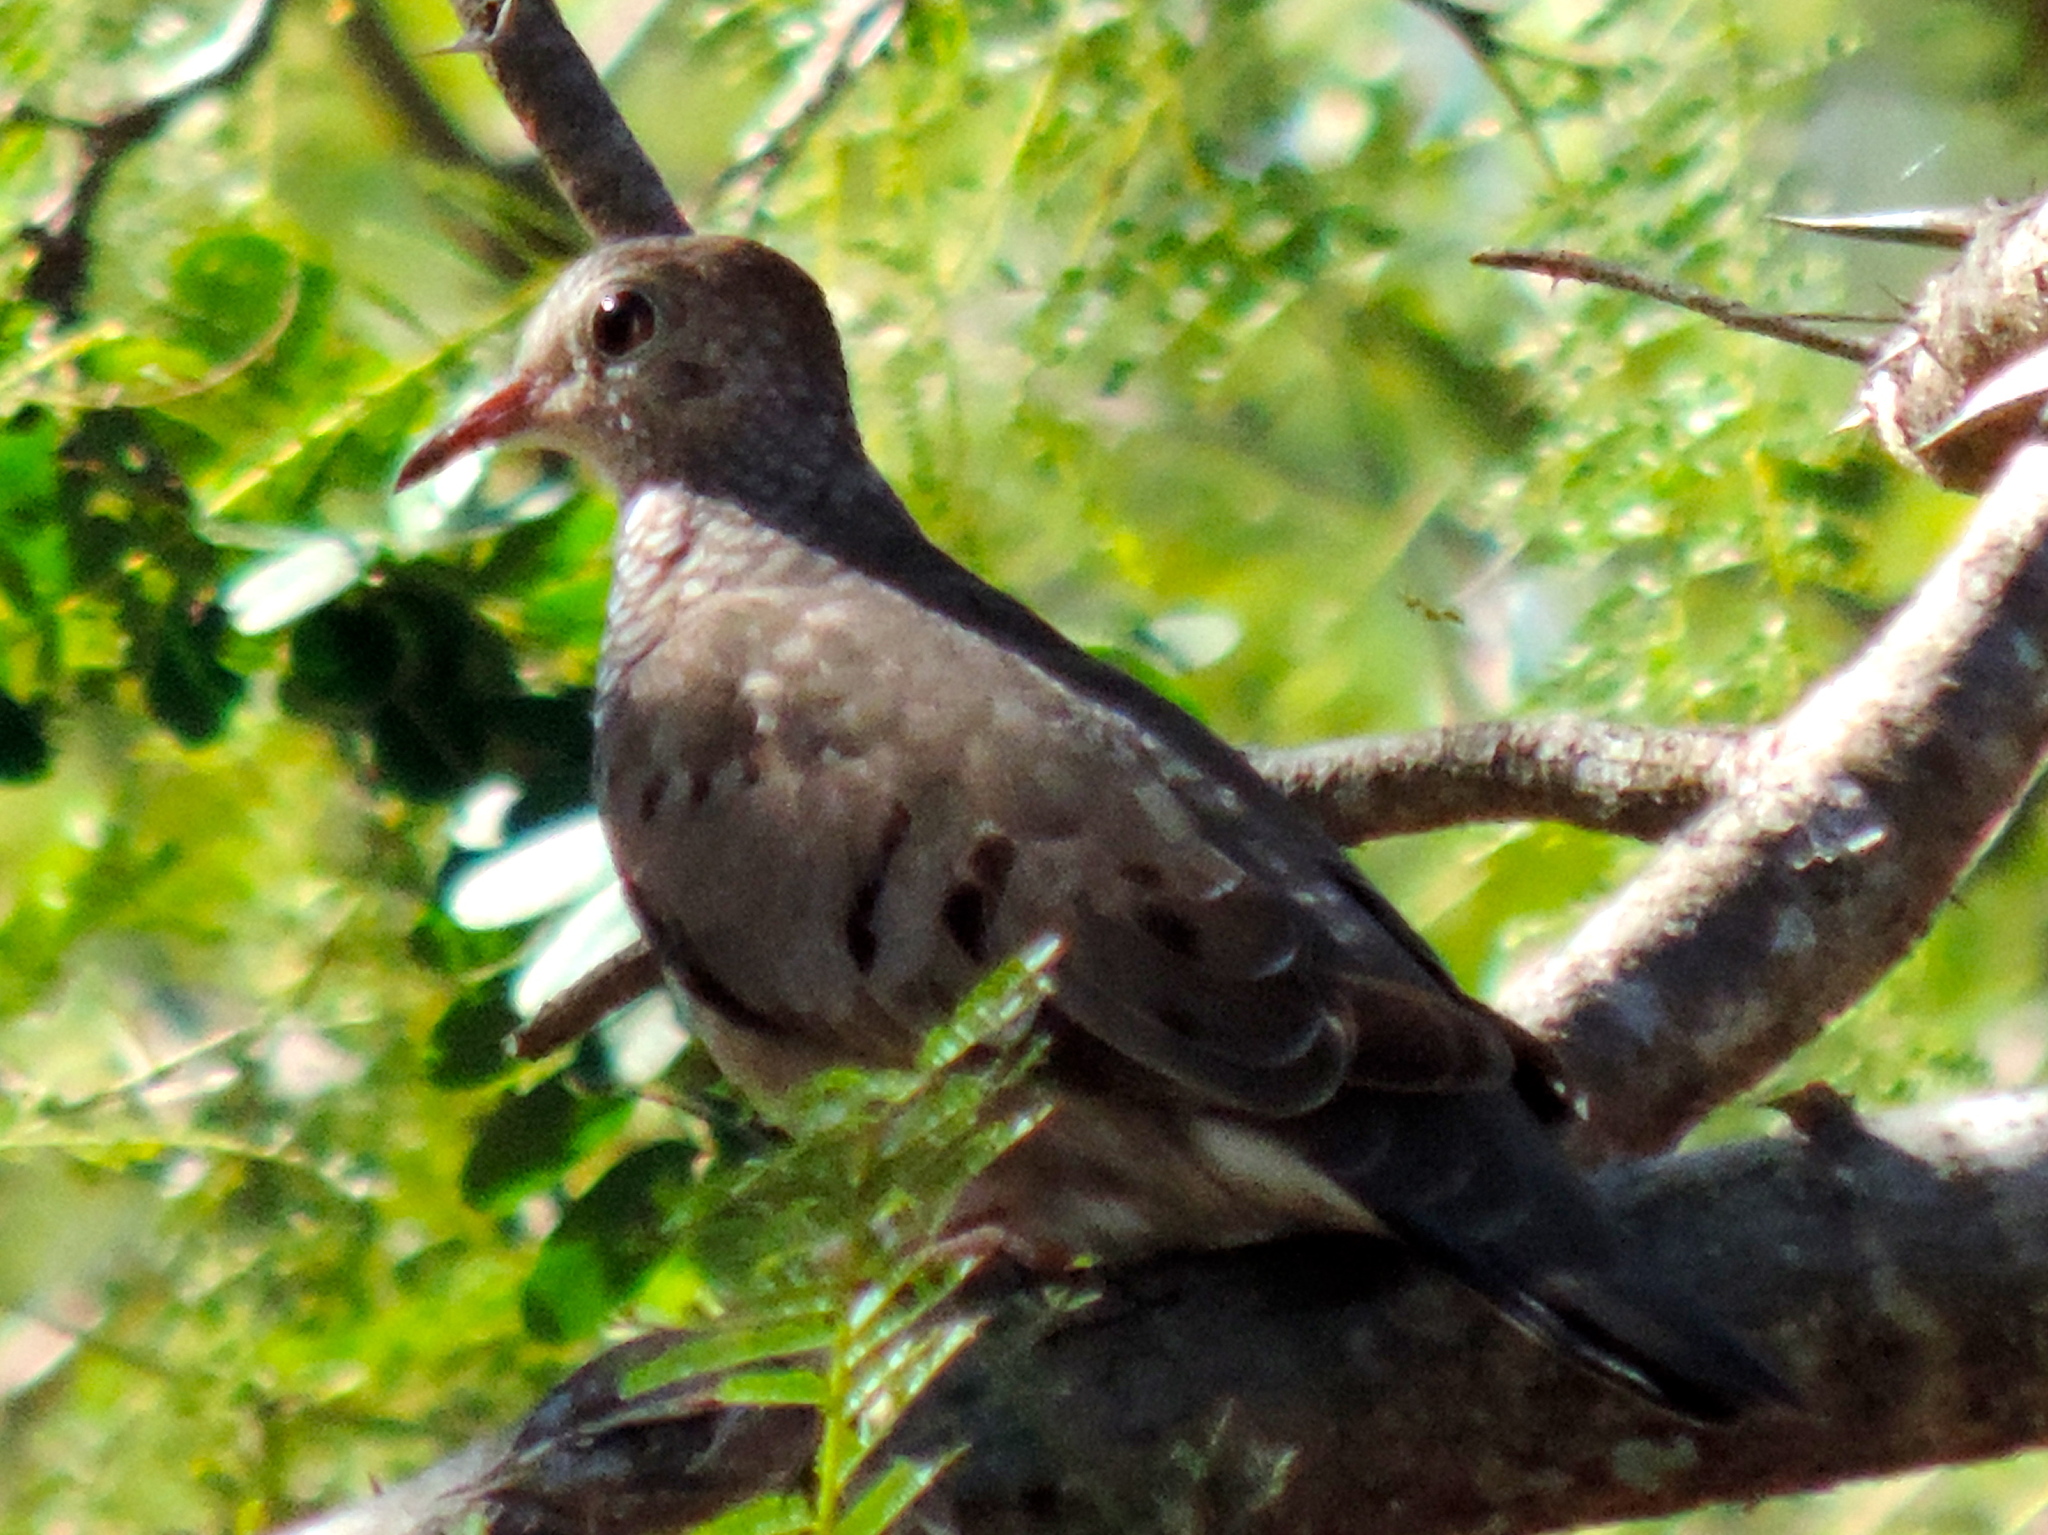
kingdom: Animalia
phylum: Chordata
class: Aves
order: Columbiformes
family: Columbidae
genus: Columbina
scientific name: Columbina passerina
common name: Common ground-dove
